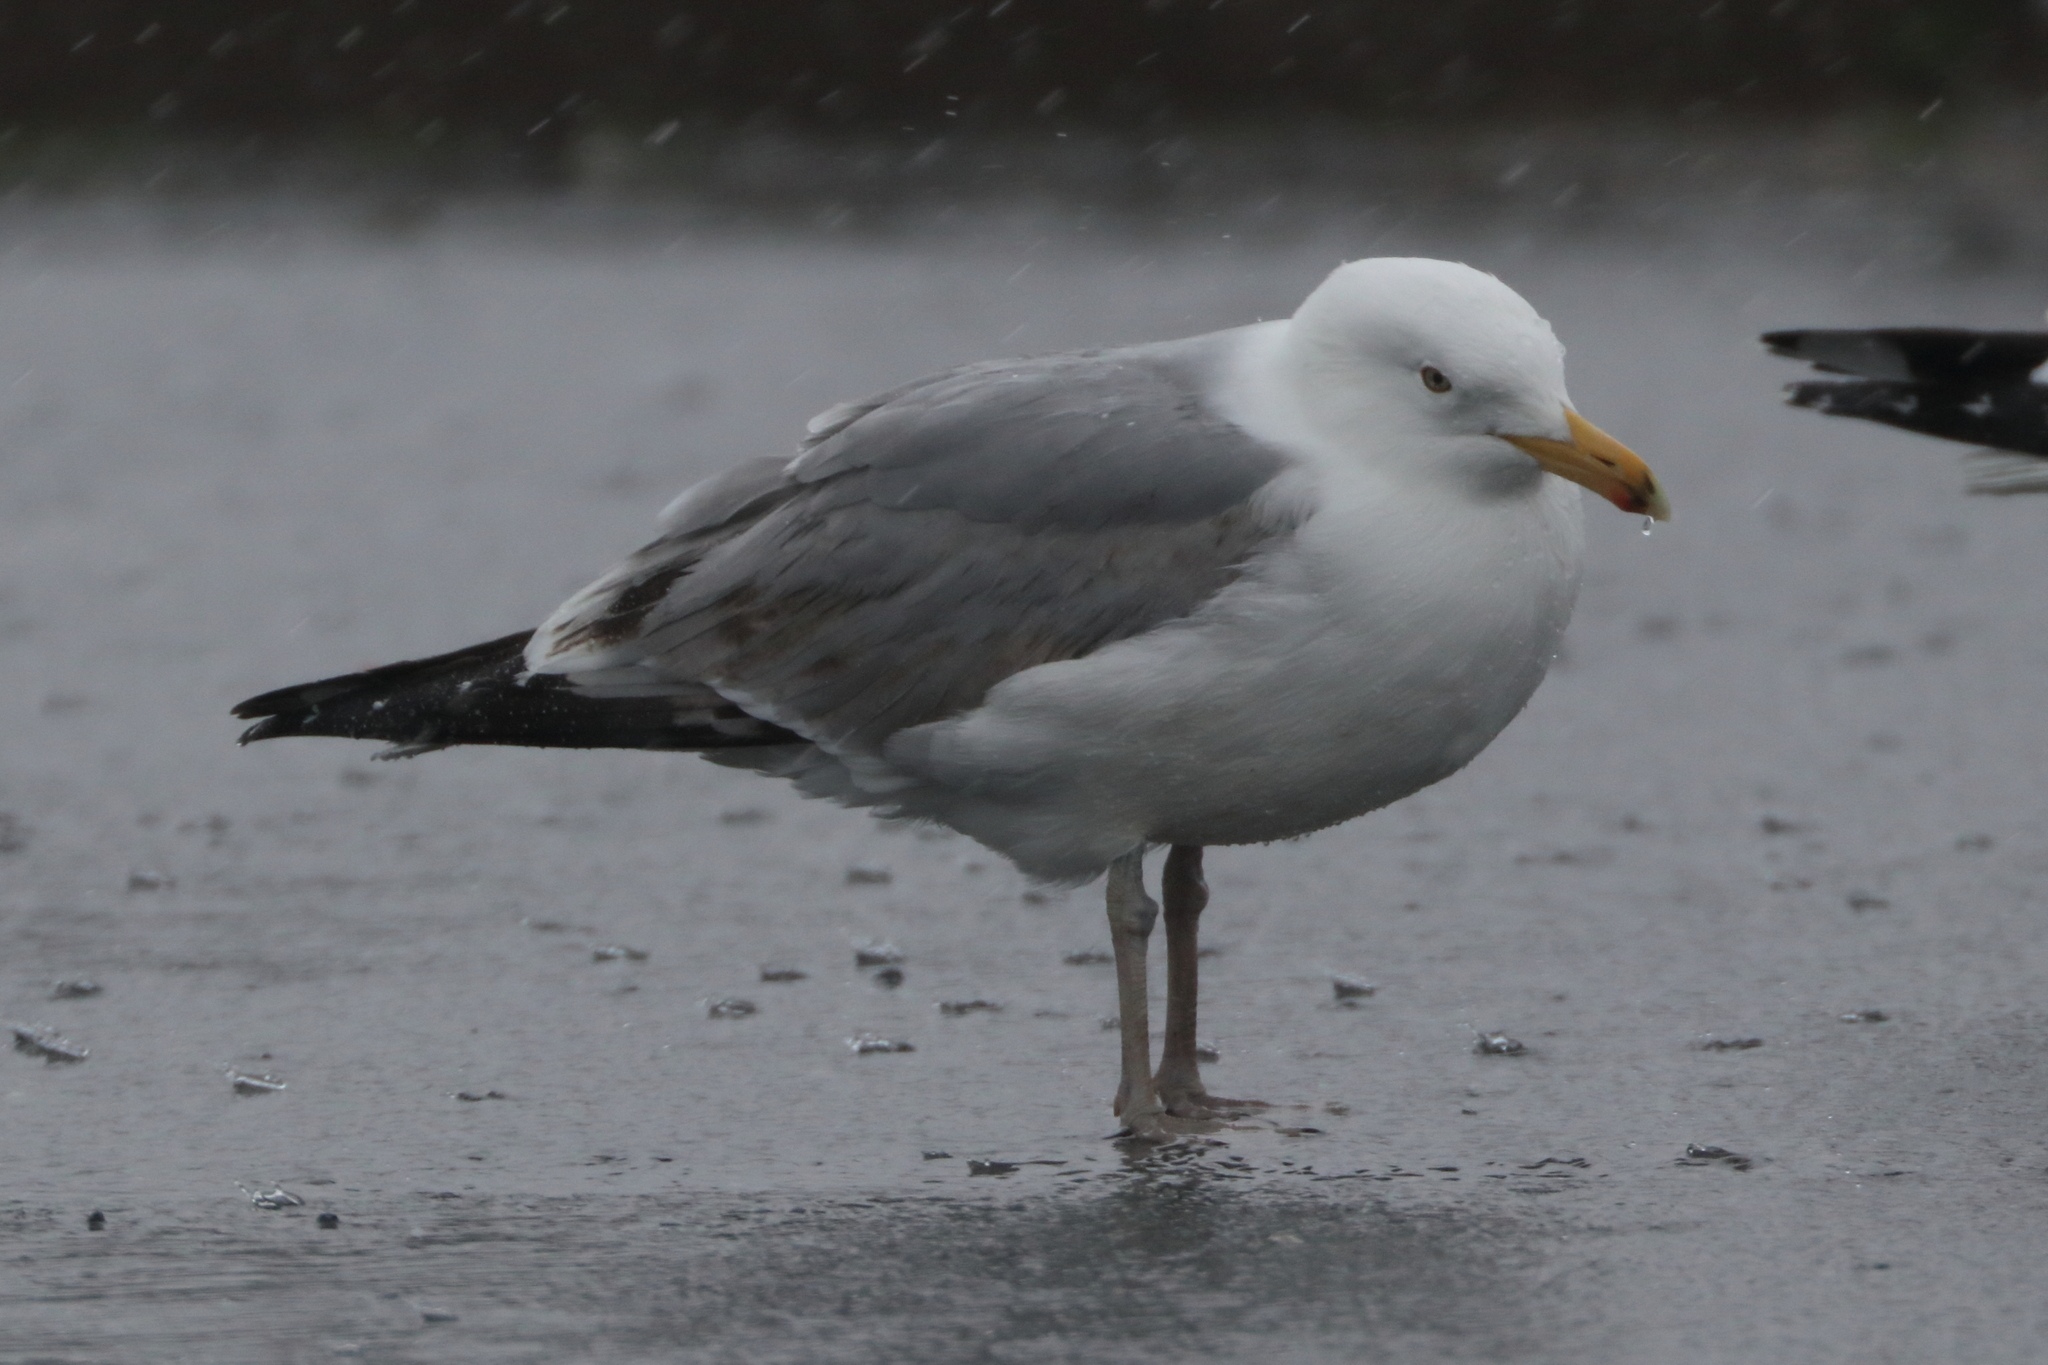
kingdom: Animalia
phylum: Chordata
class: Aves
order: Charadriiformes
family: Laridae
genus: Larus
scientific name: Larus argentatus
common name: Herring gull
